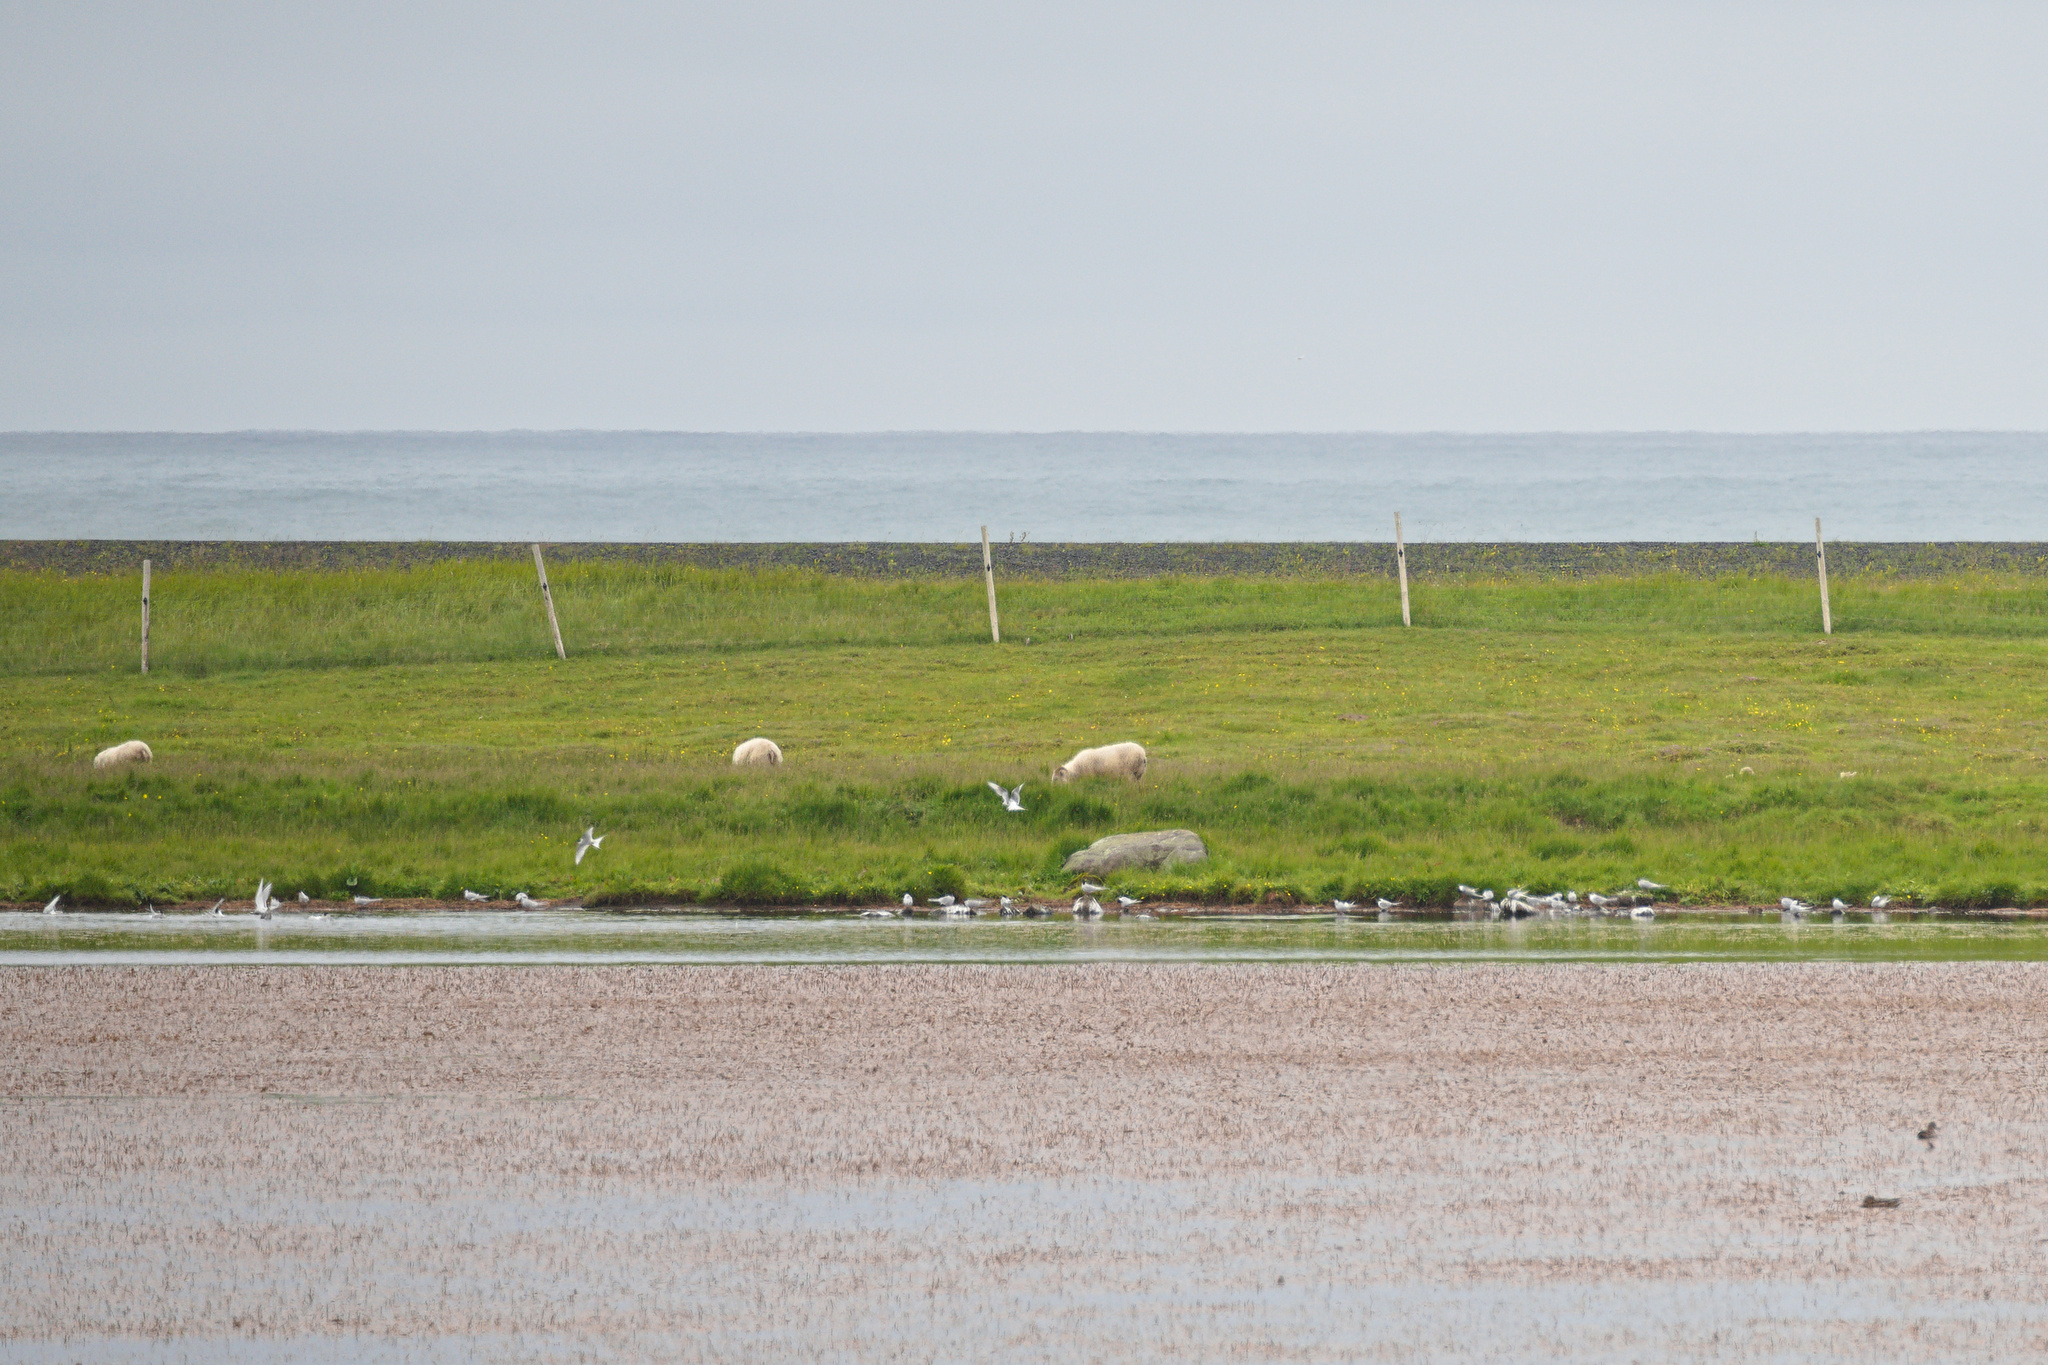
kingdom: Animalia
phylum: Chordata
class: Aves
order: Charadriiformes
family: Laridae
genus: Sterna
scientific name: Sterna paradisaea
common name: Arctic tern
